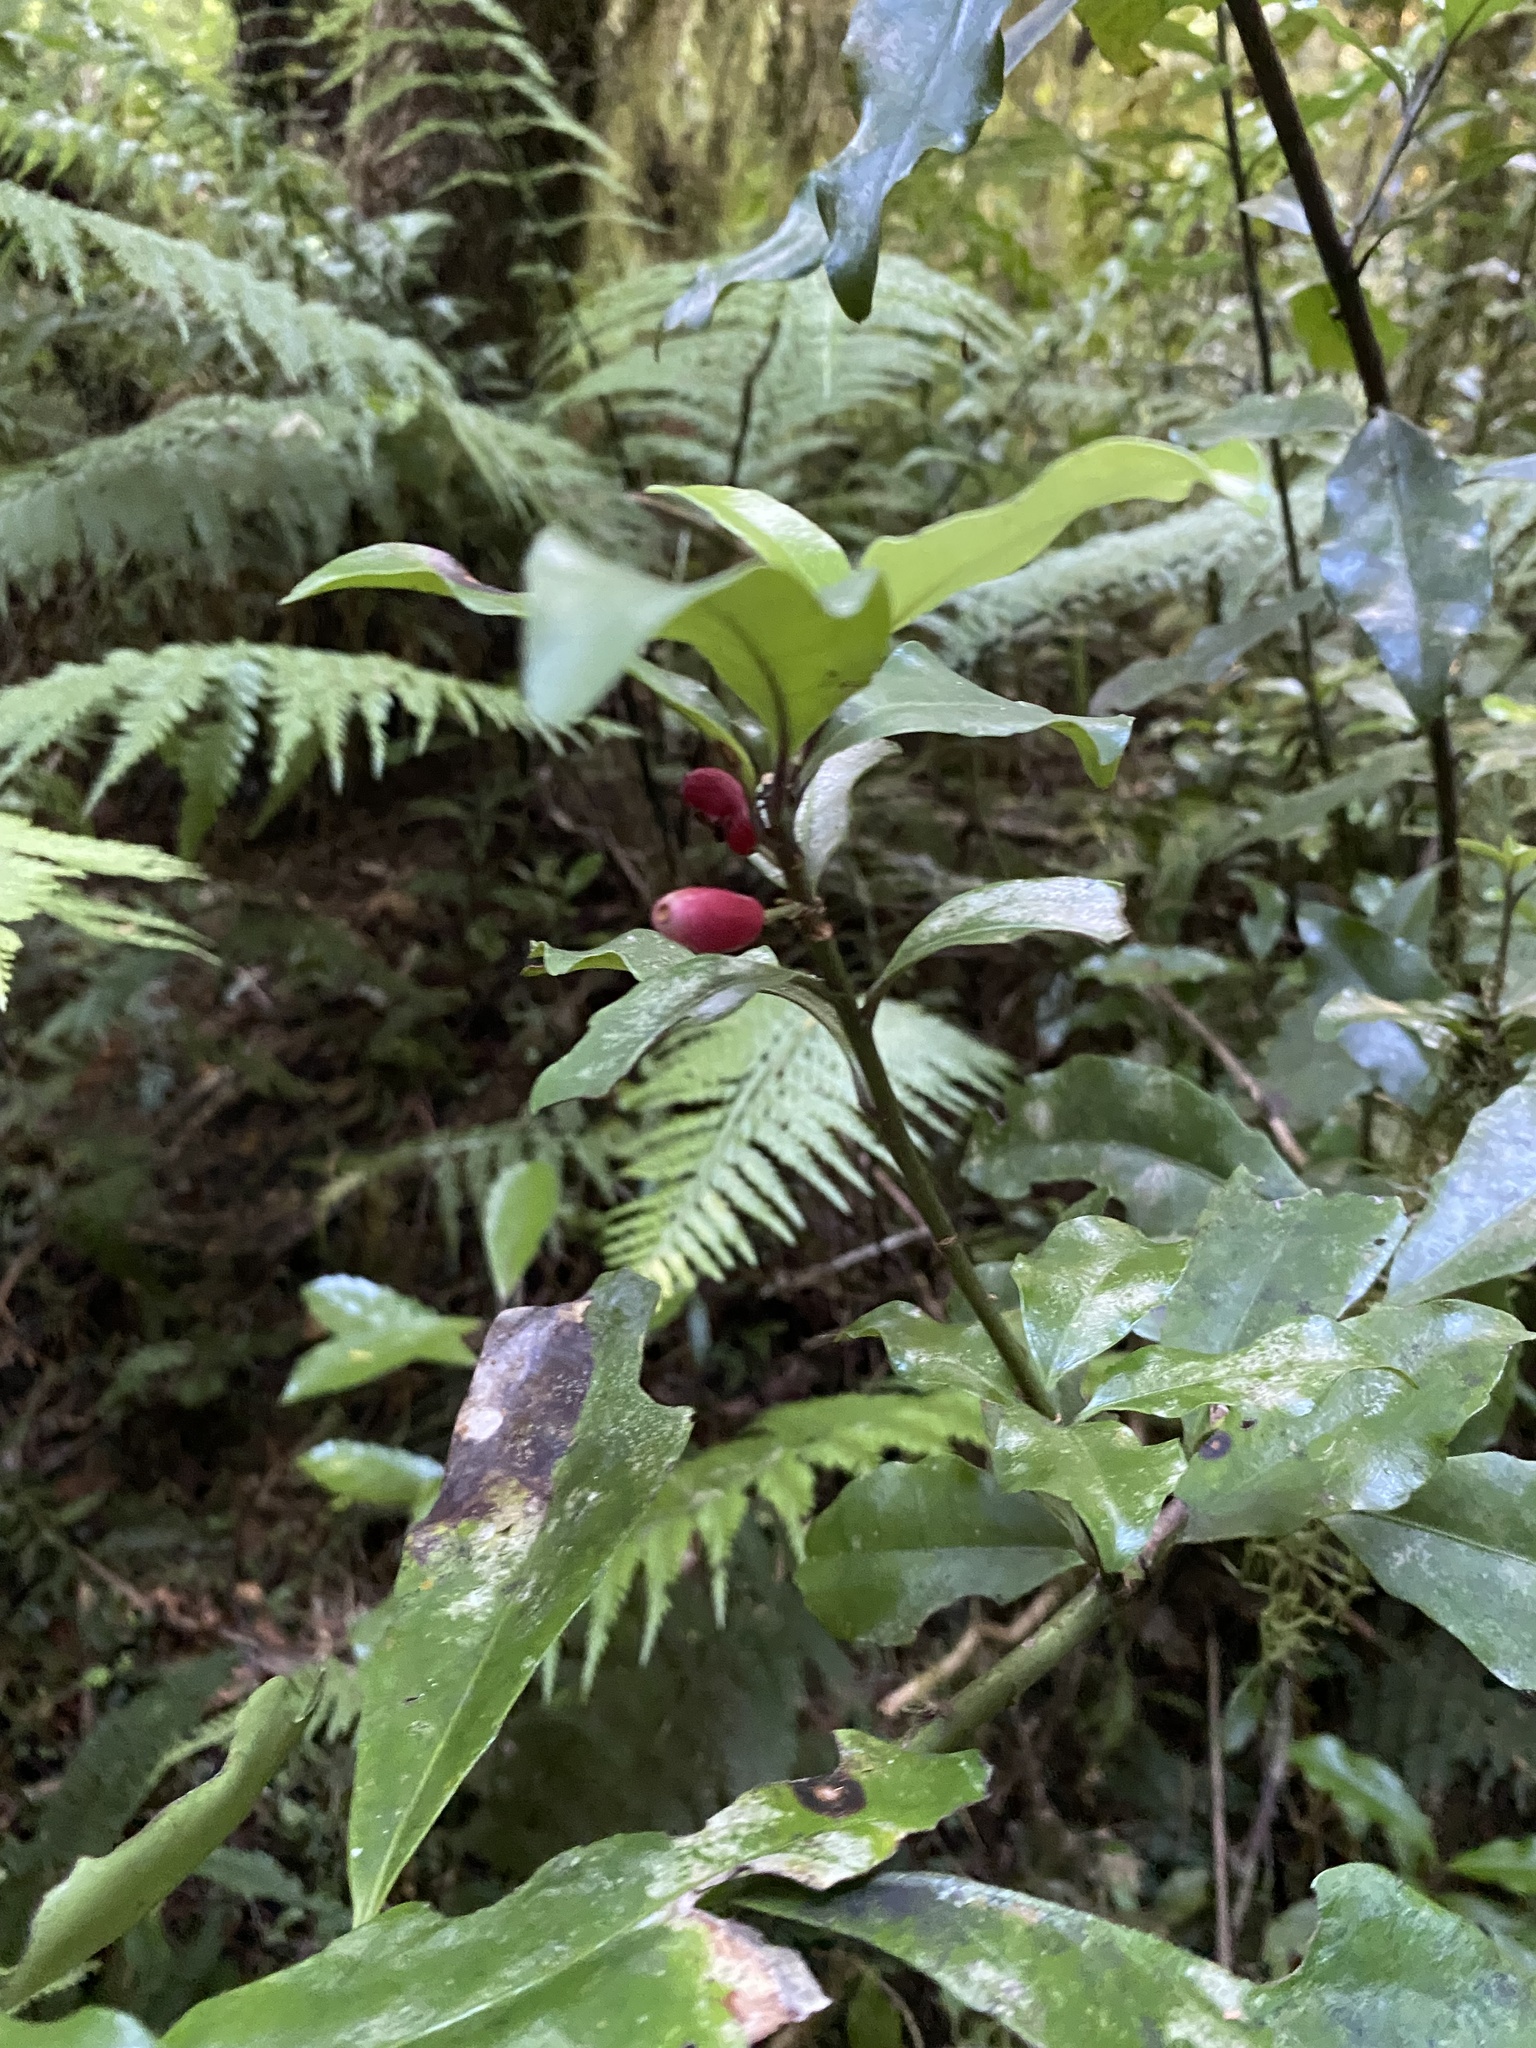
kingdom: Plantae
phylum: Tracheophyta
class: Magnoliopsida
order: Asterales
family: Alseuosmiaceae
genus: Alseuosmia
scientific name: Alseuosmia macrophylla
